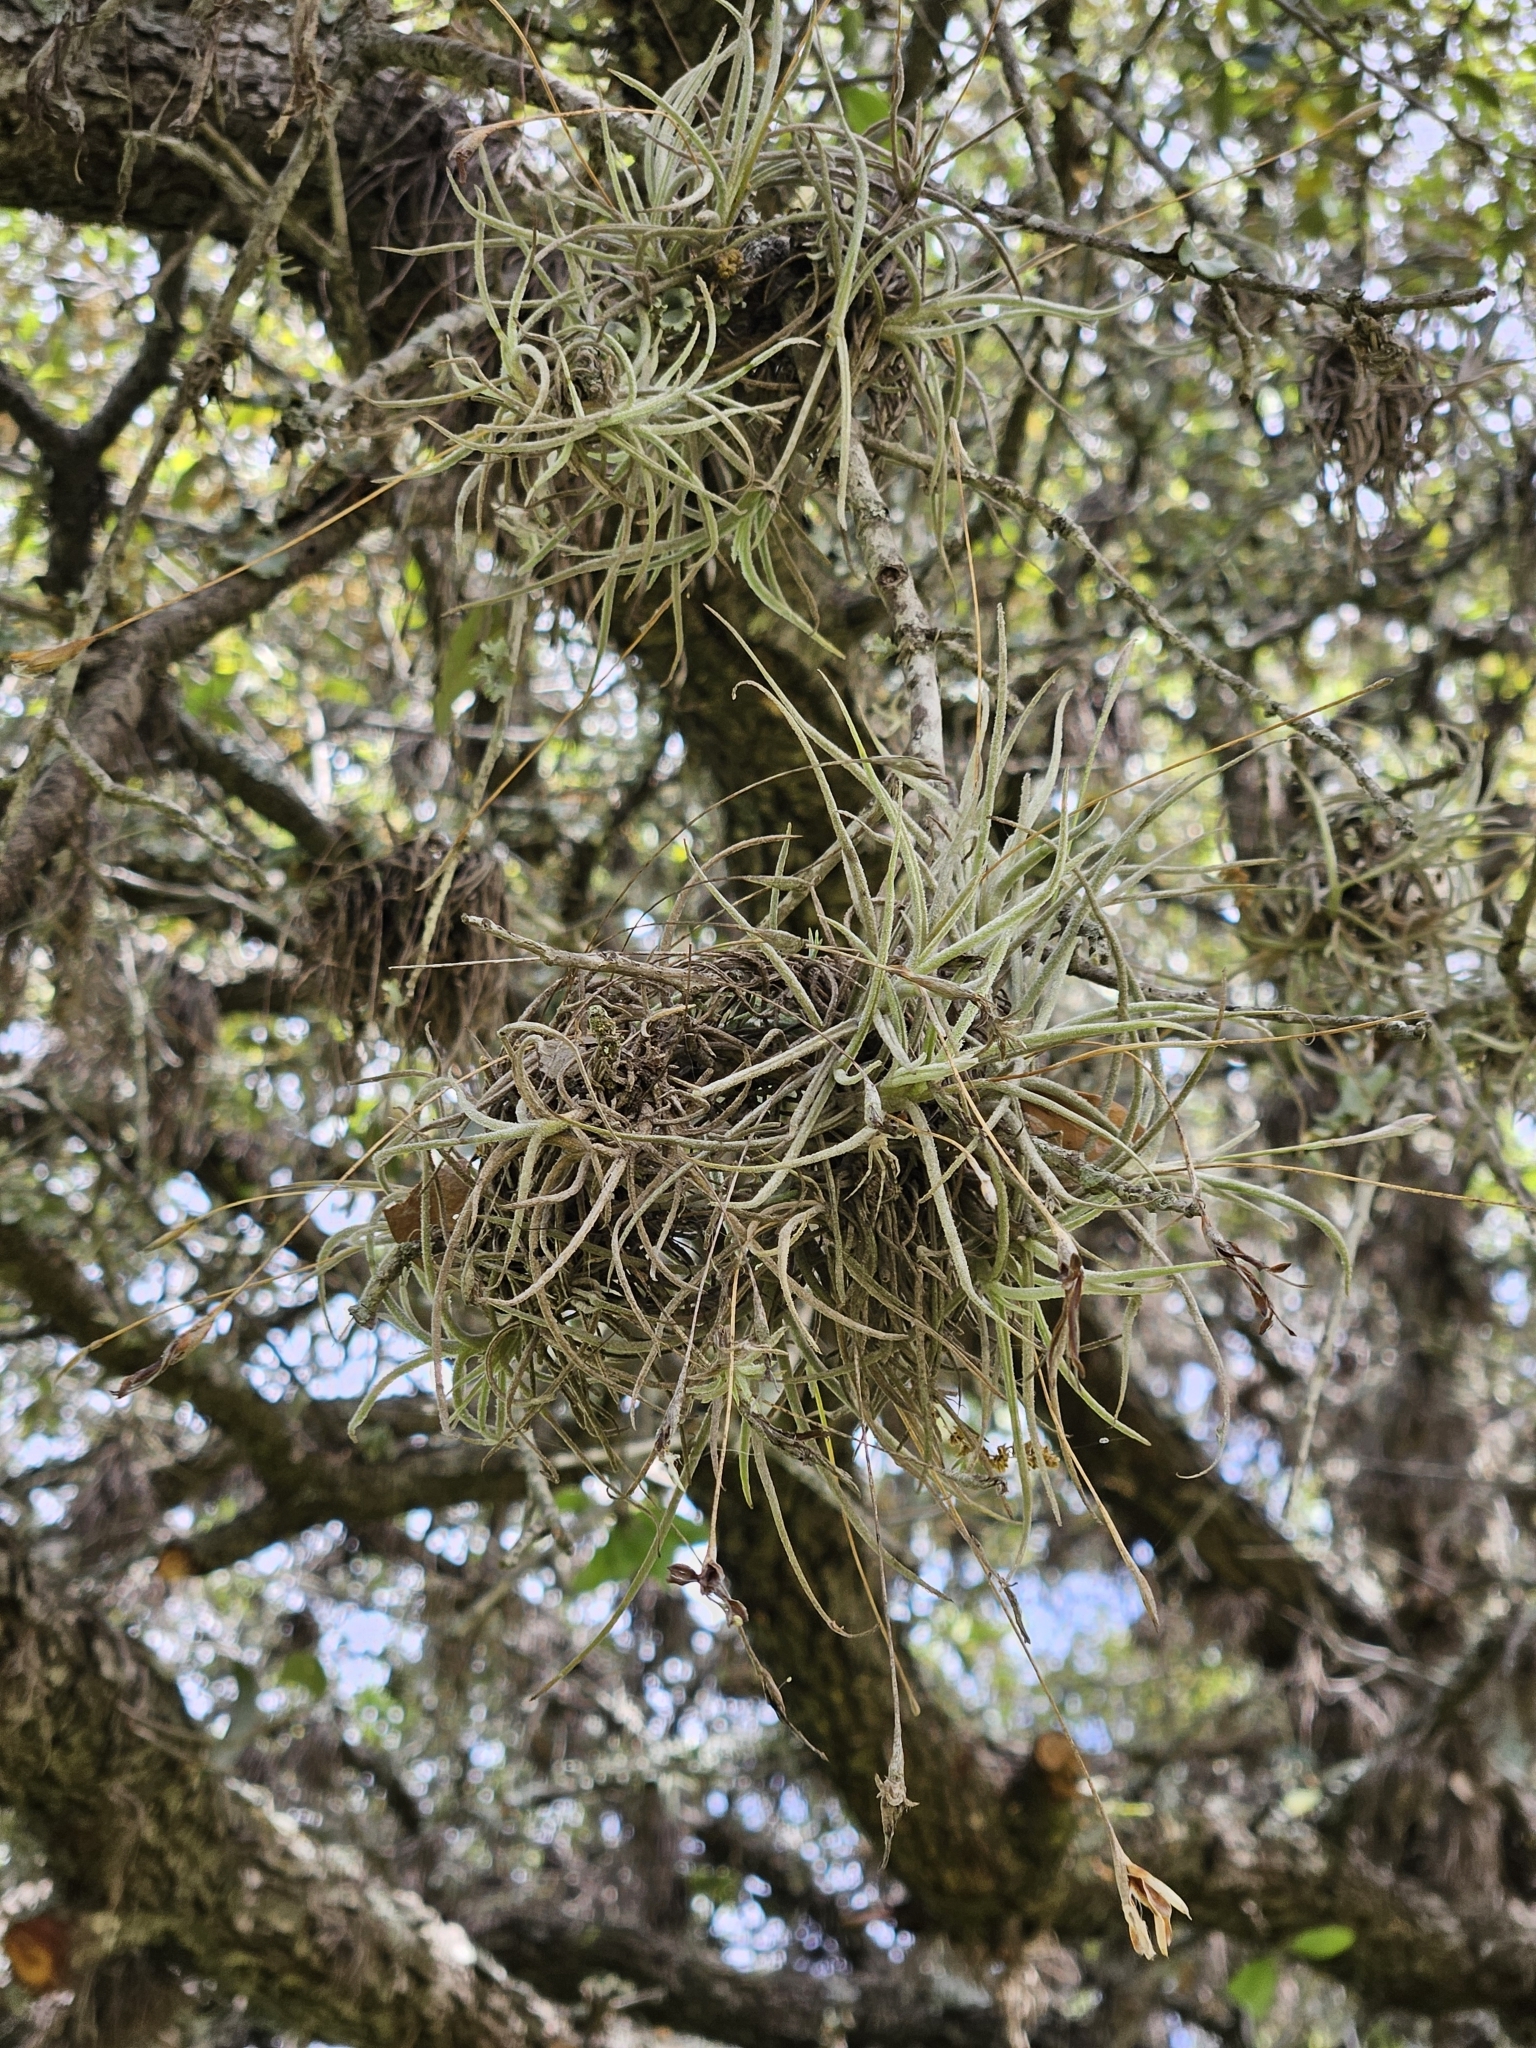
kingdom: Plantae
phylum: Tracheophyta
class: Liliopsida
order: Poales
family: Bromeliaceae
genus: Tillandsia
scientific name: Tillandsia recurvata
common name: Small ballmoss
